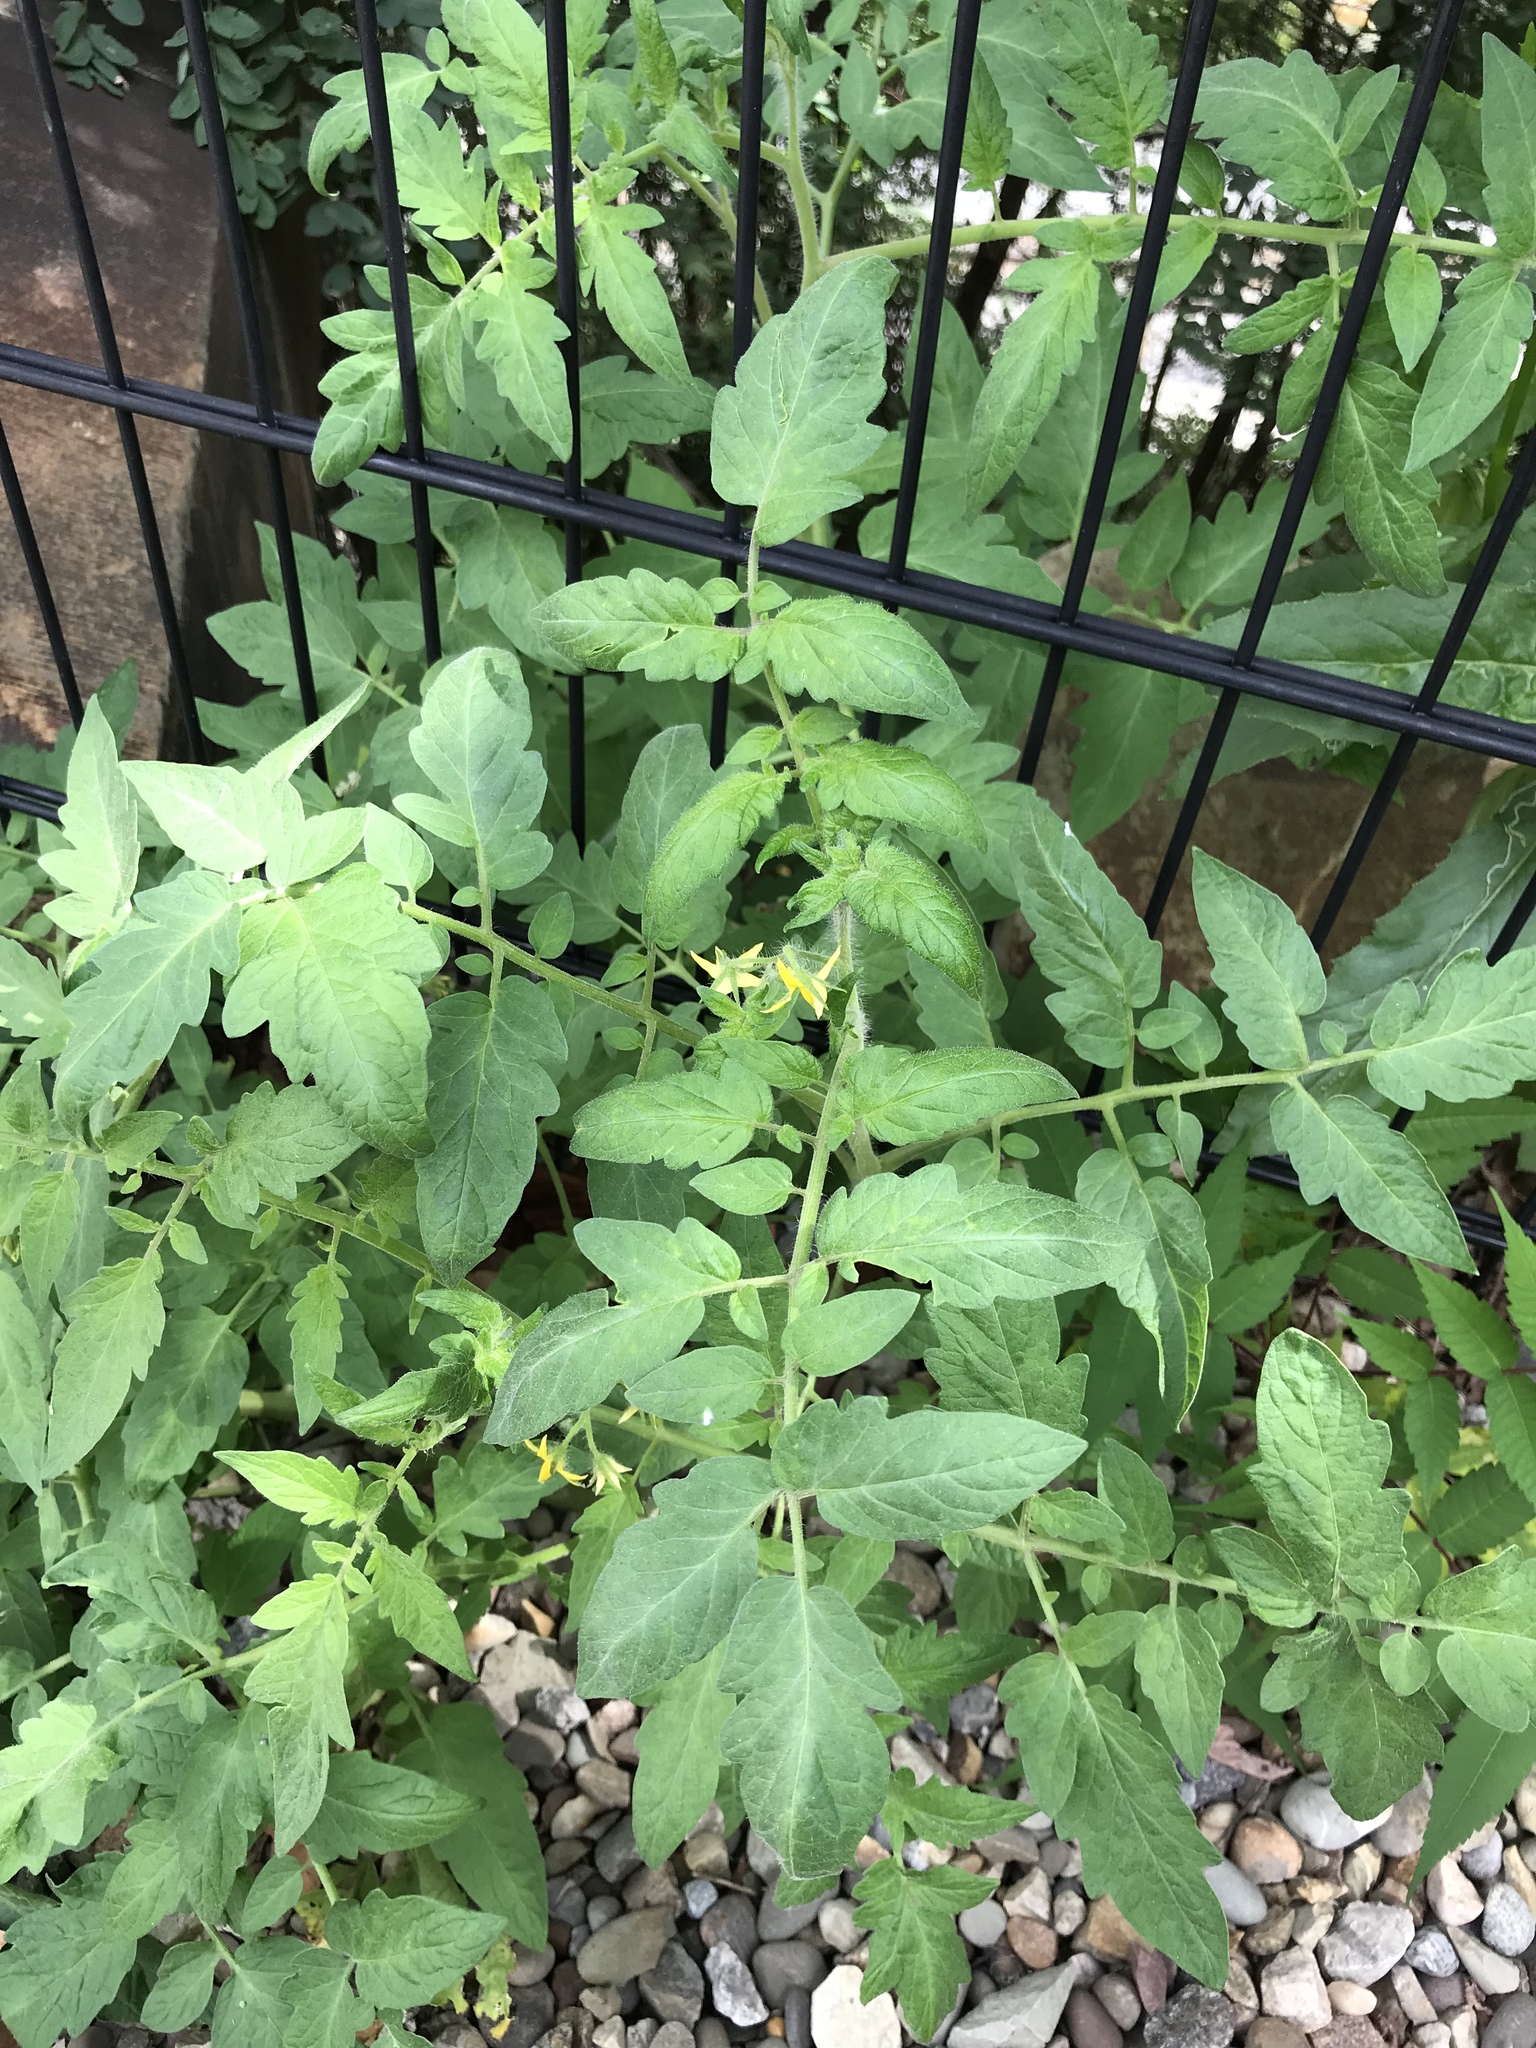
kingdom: Plantae
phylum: Tracheophyta
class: Magnoliopsida
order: Solanales
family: Solanaceae
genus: Solanum
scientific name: Solanum lycopersicum
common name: Garden tomato
